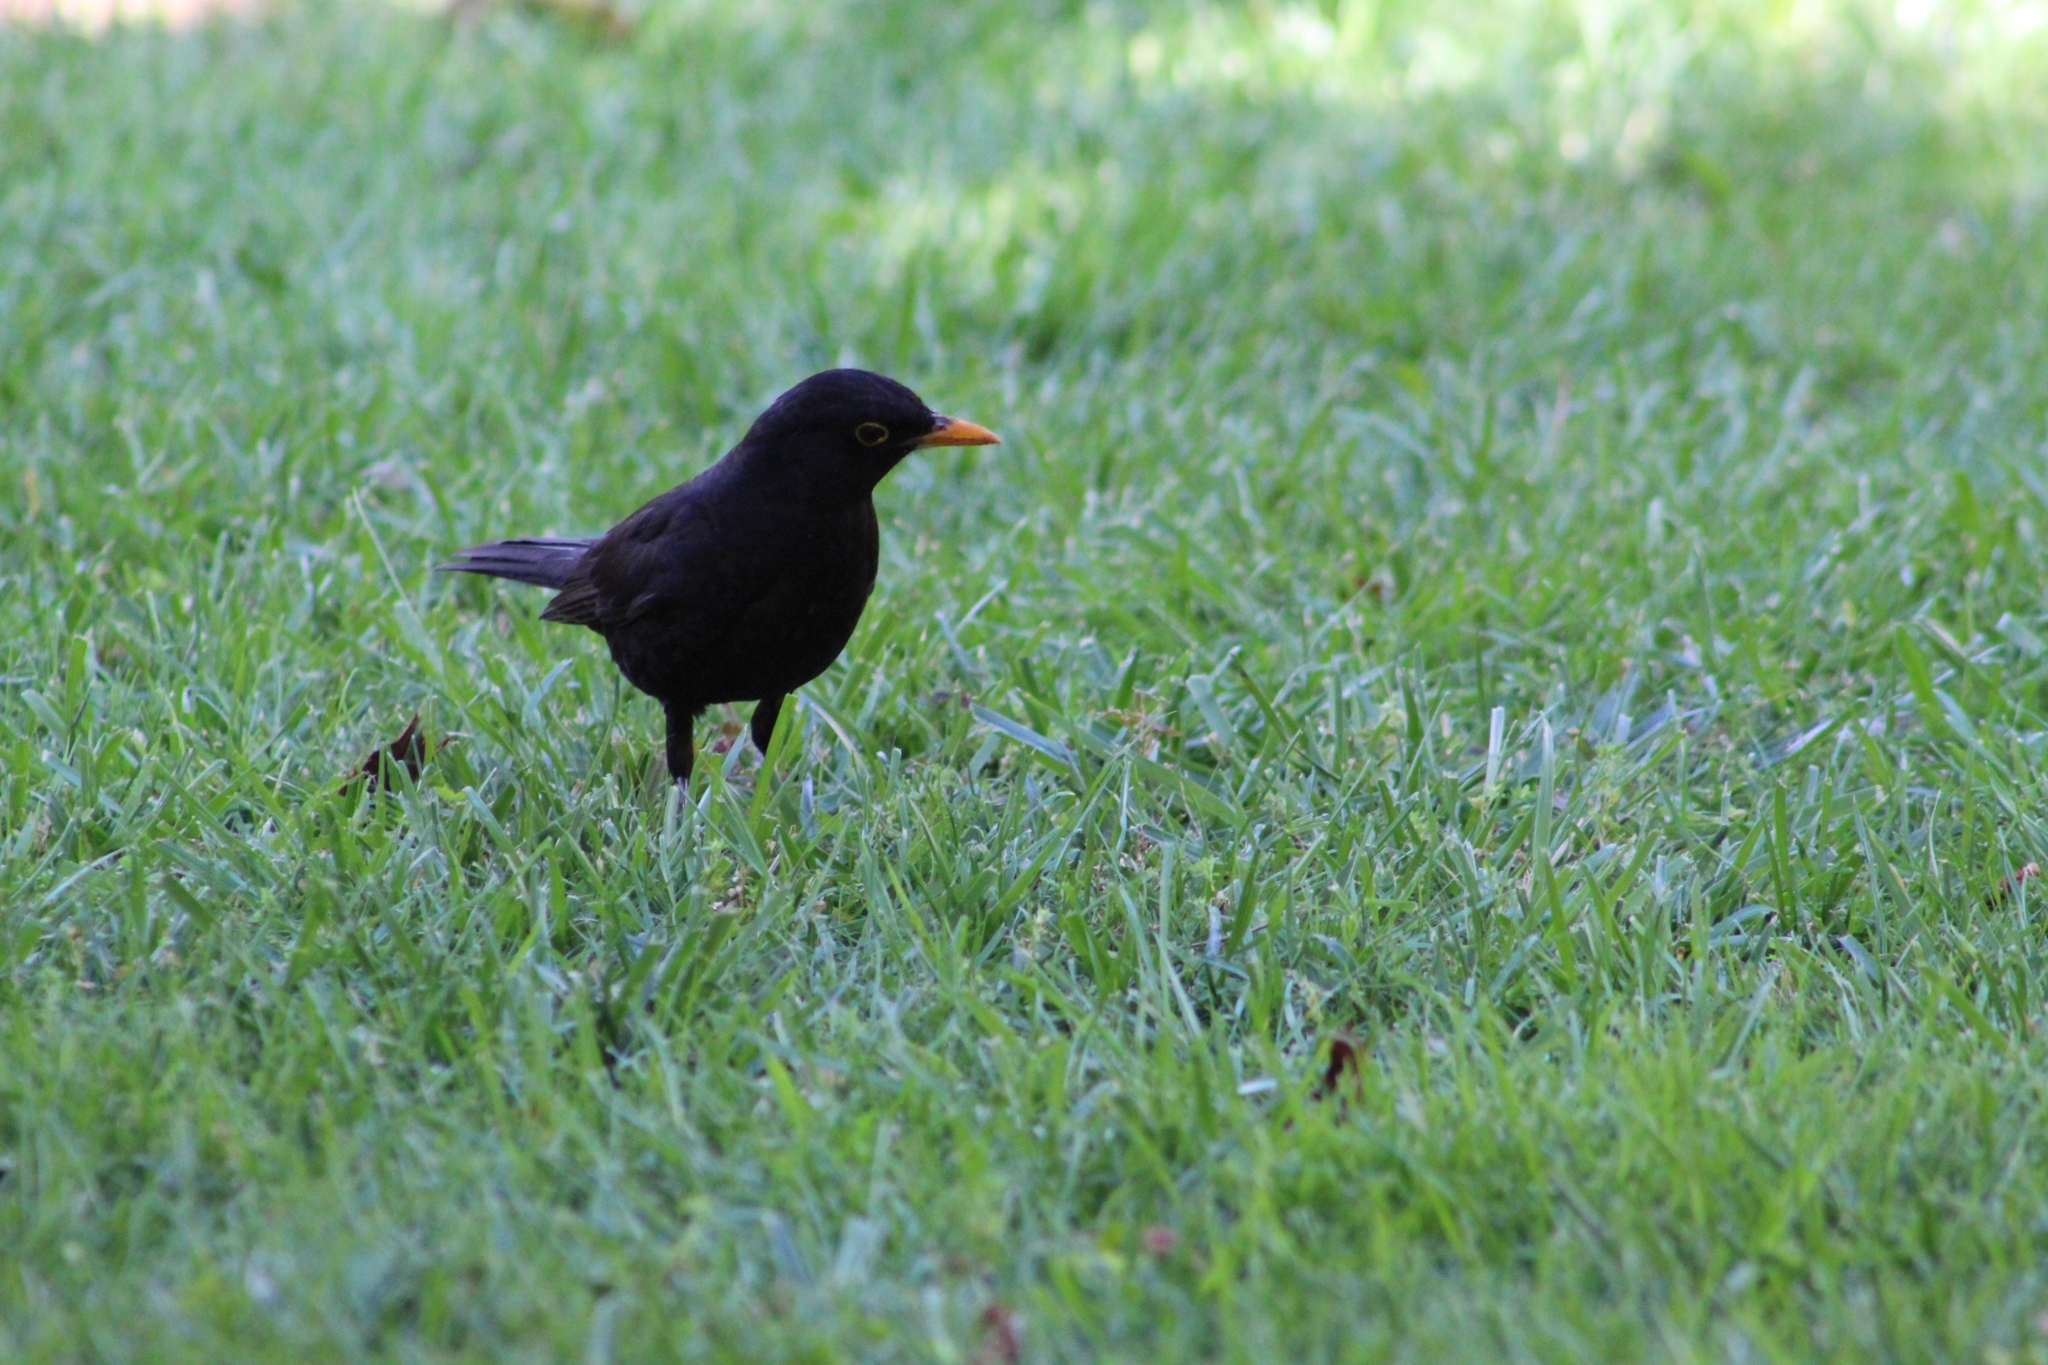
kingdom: Animalia
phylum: Chordata
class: Aves
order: Passeriformes
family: Turdidae
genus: Turdus
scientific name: Turdus merula
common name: Common blackbird
